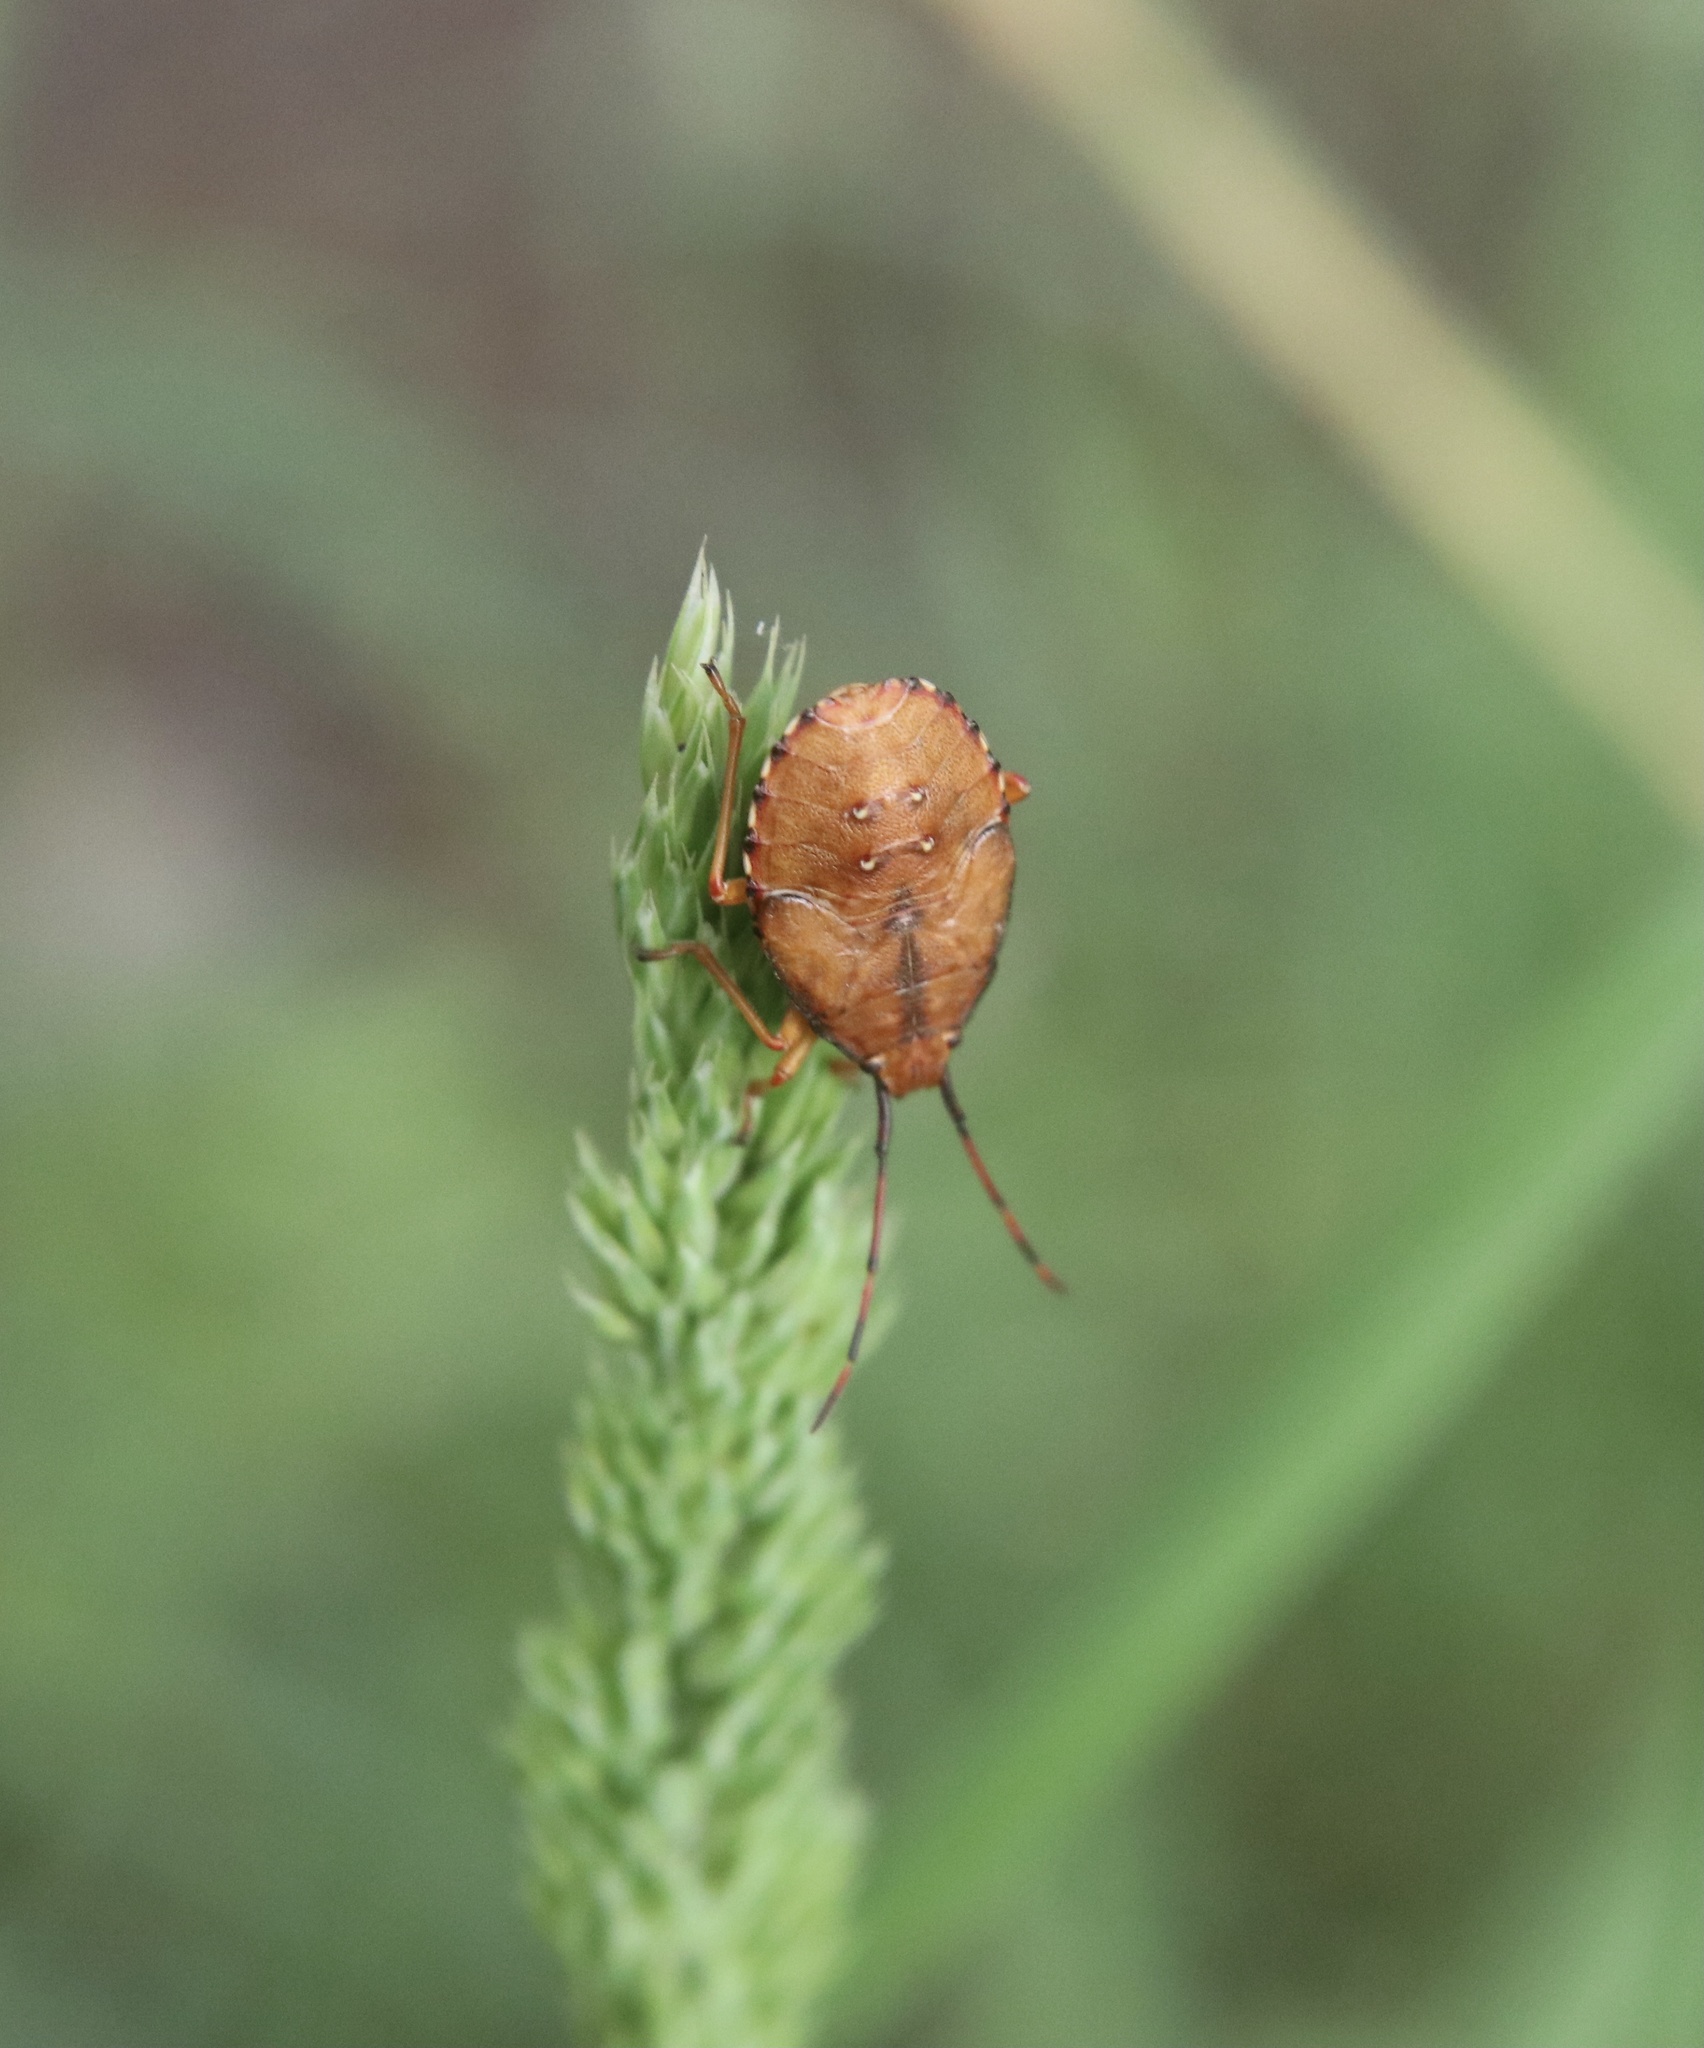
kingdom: Animalia
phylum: Arthropoda
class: Insecta
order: Hemiptera
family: Acanthosomatidae
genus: Planois
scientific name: Planois gayi
